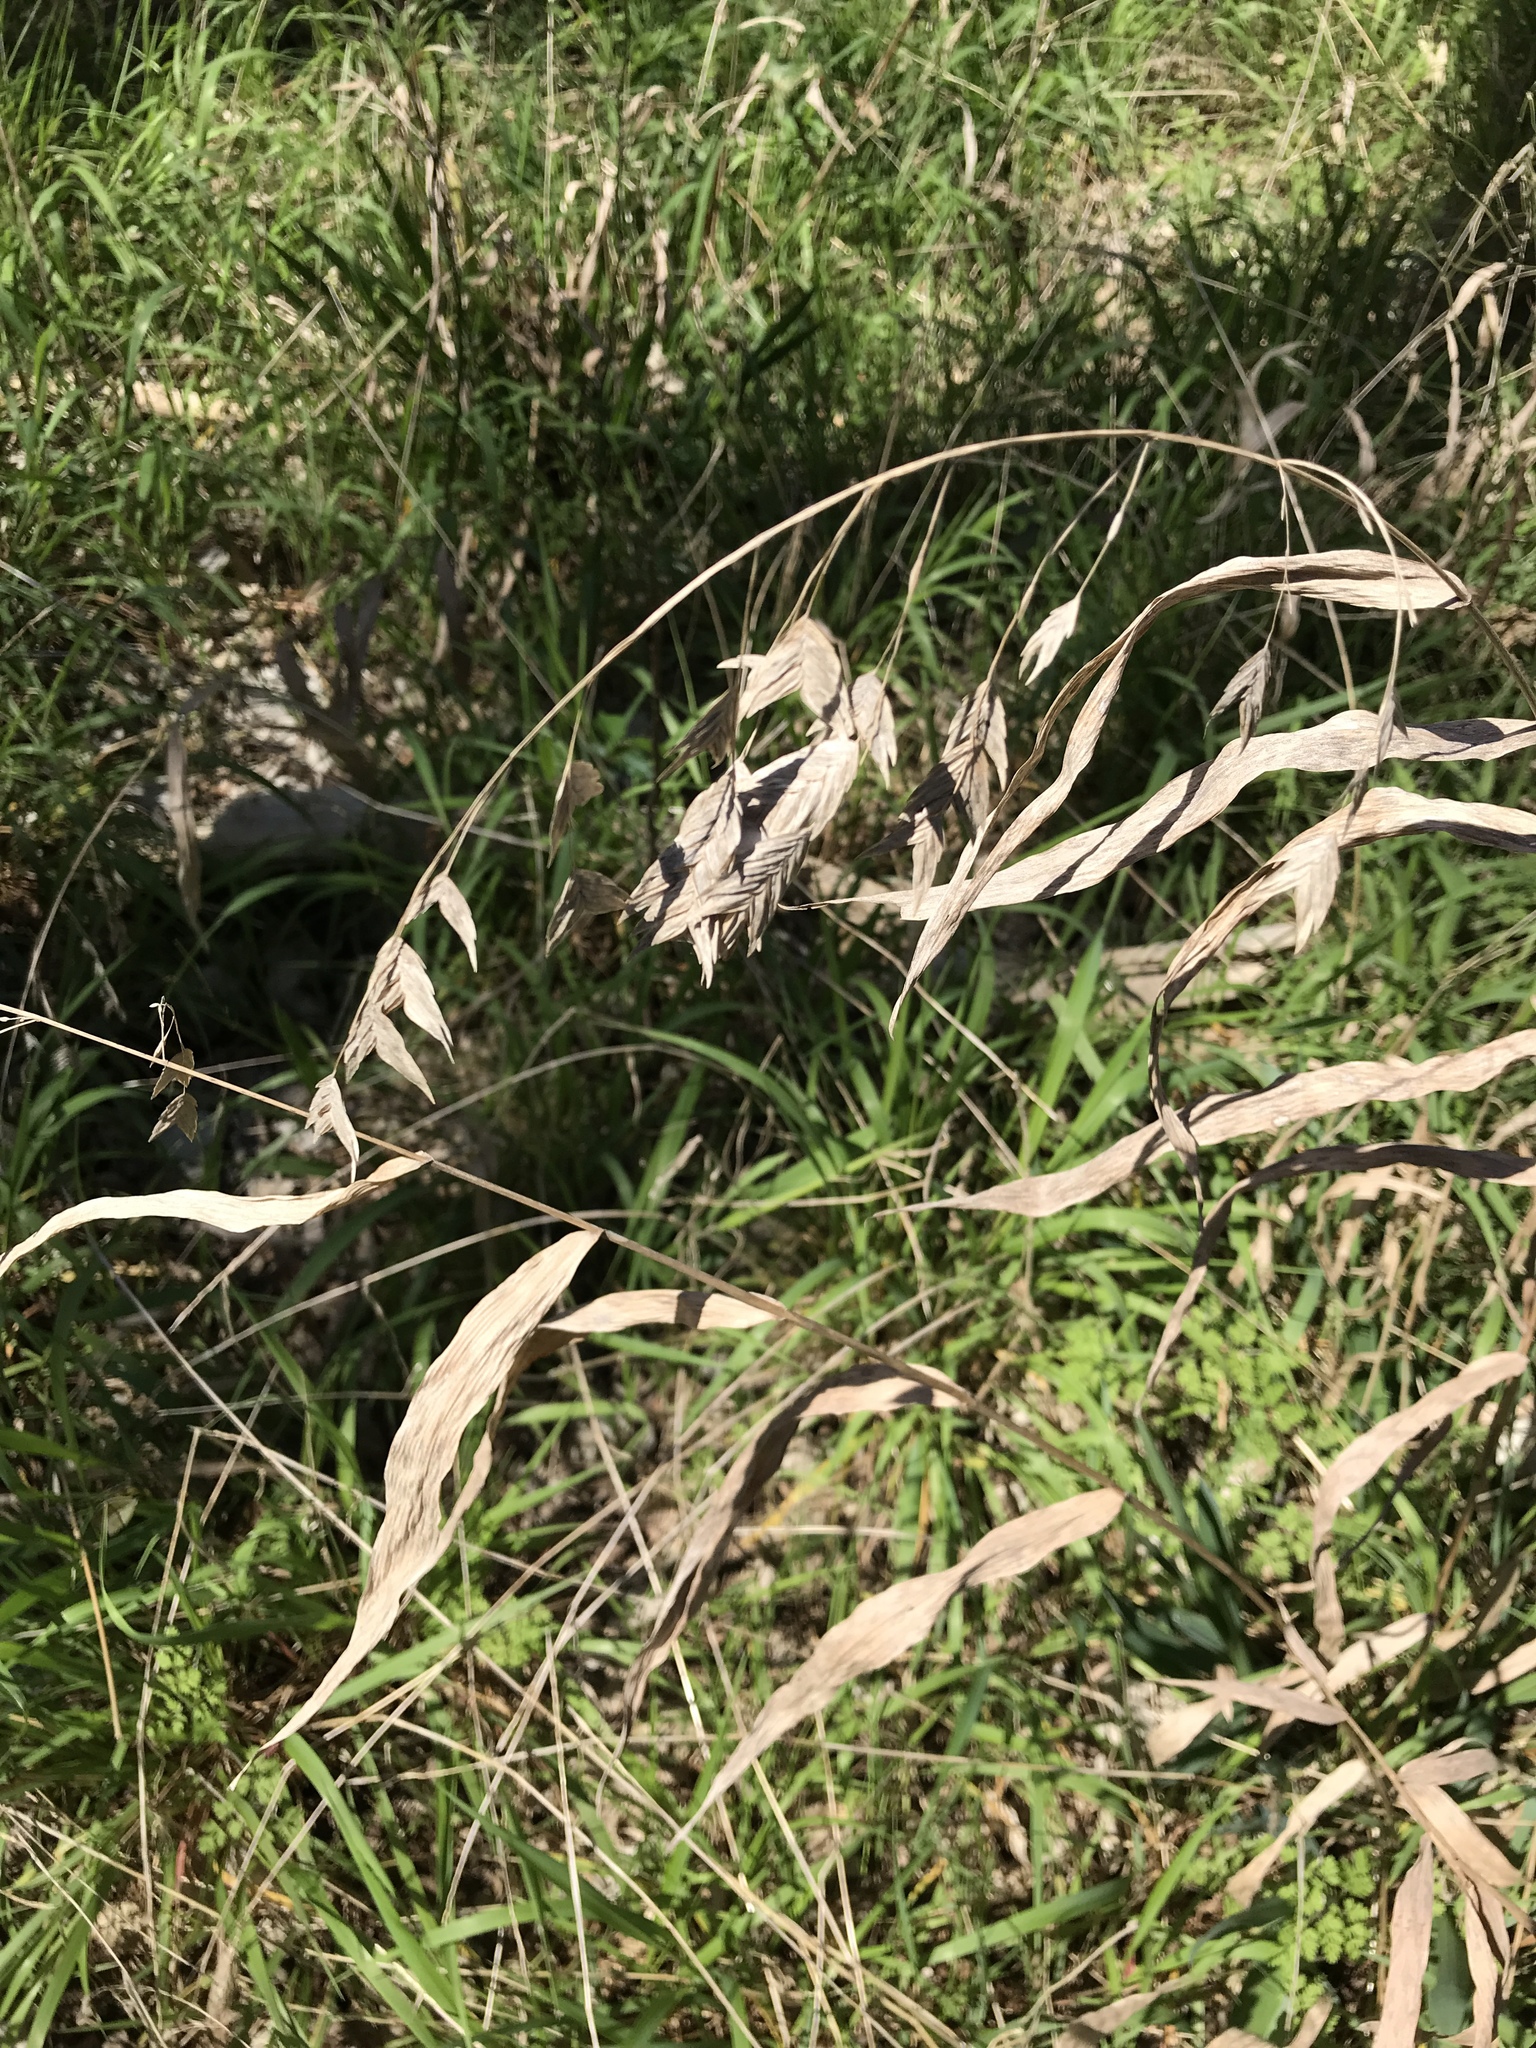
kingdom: Plantae
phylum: Tracheophyta
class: Liliopsida
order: Poales
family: Poaceae
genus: Chasmanthium
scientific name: Chasmanthium latifolium
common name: Broad-leaved chasmanthium
